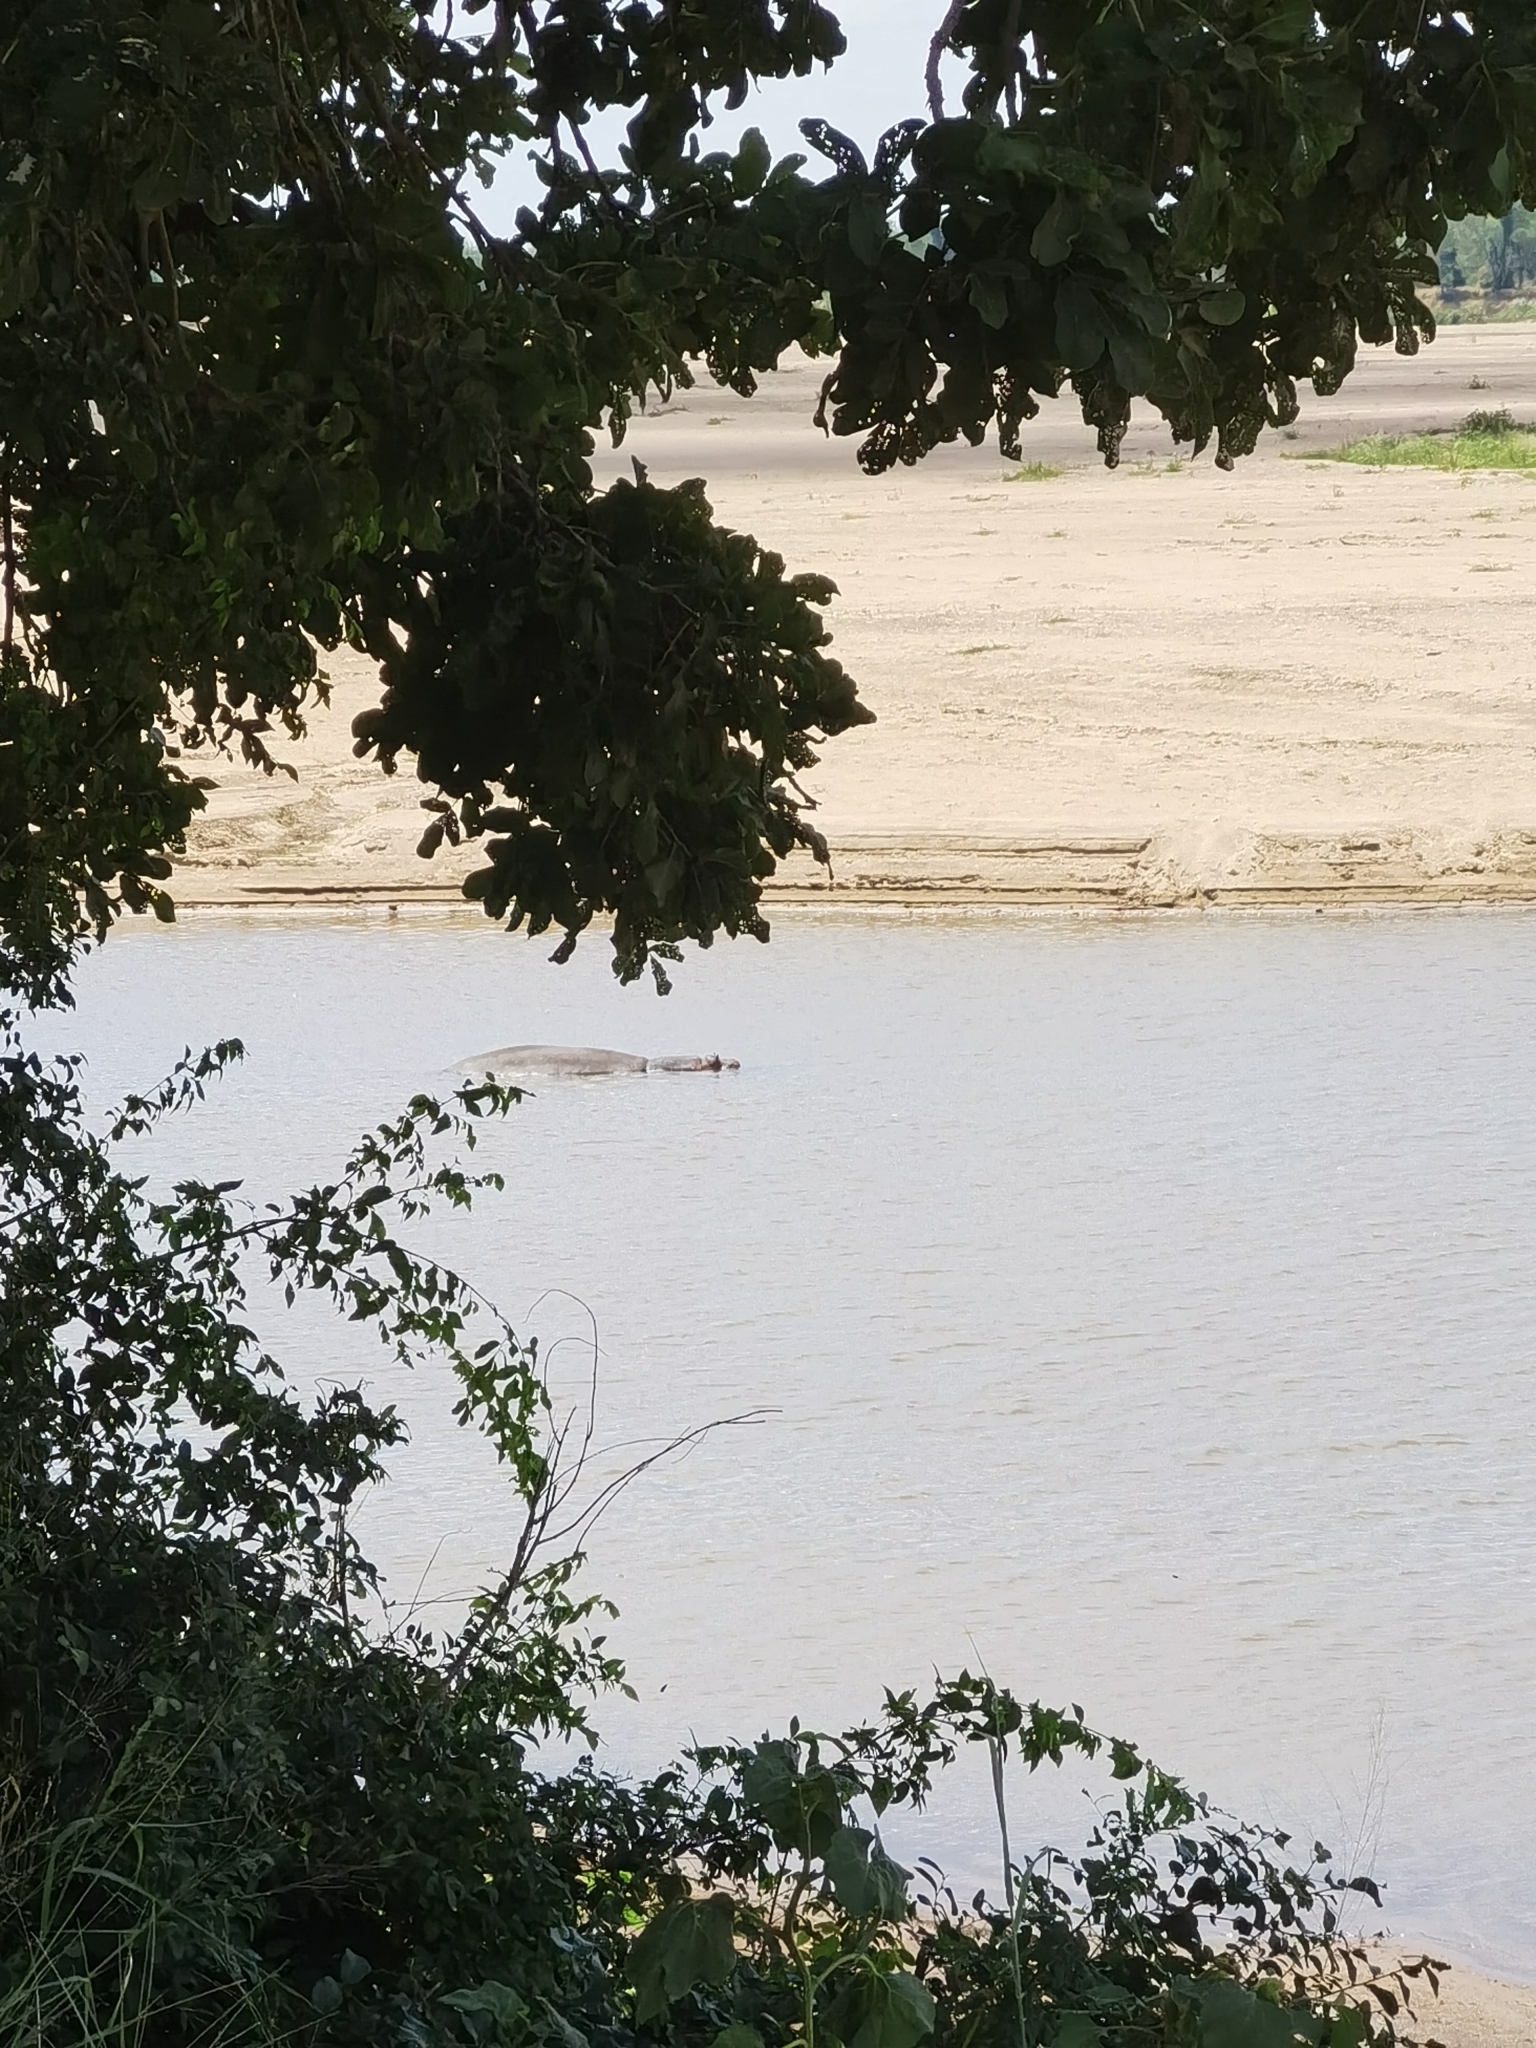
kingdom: Animalia
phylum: Chordata
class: Mammalia
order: Artiodactyla
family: Hippopotamidae
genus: Hippopotamus
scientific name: Hippopotamus amphibius
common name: Common hippopotamus
